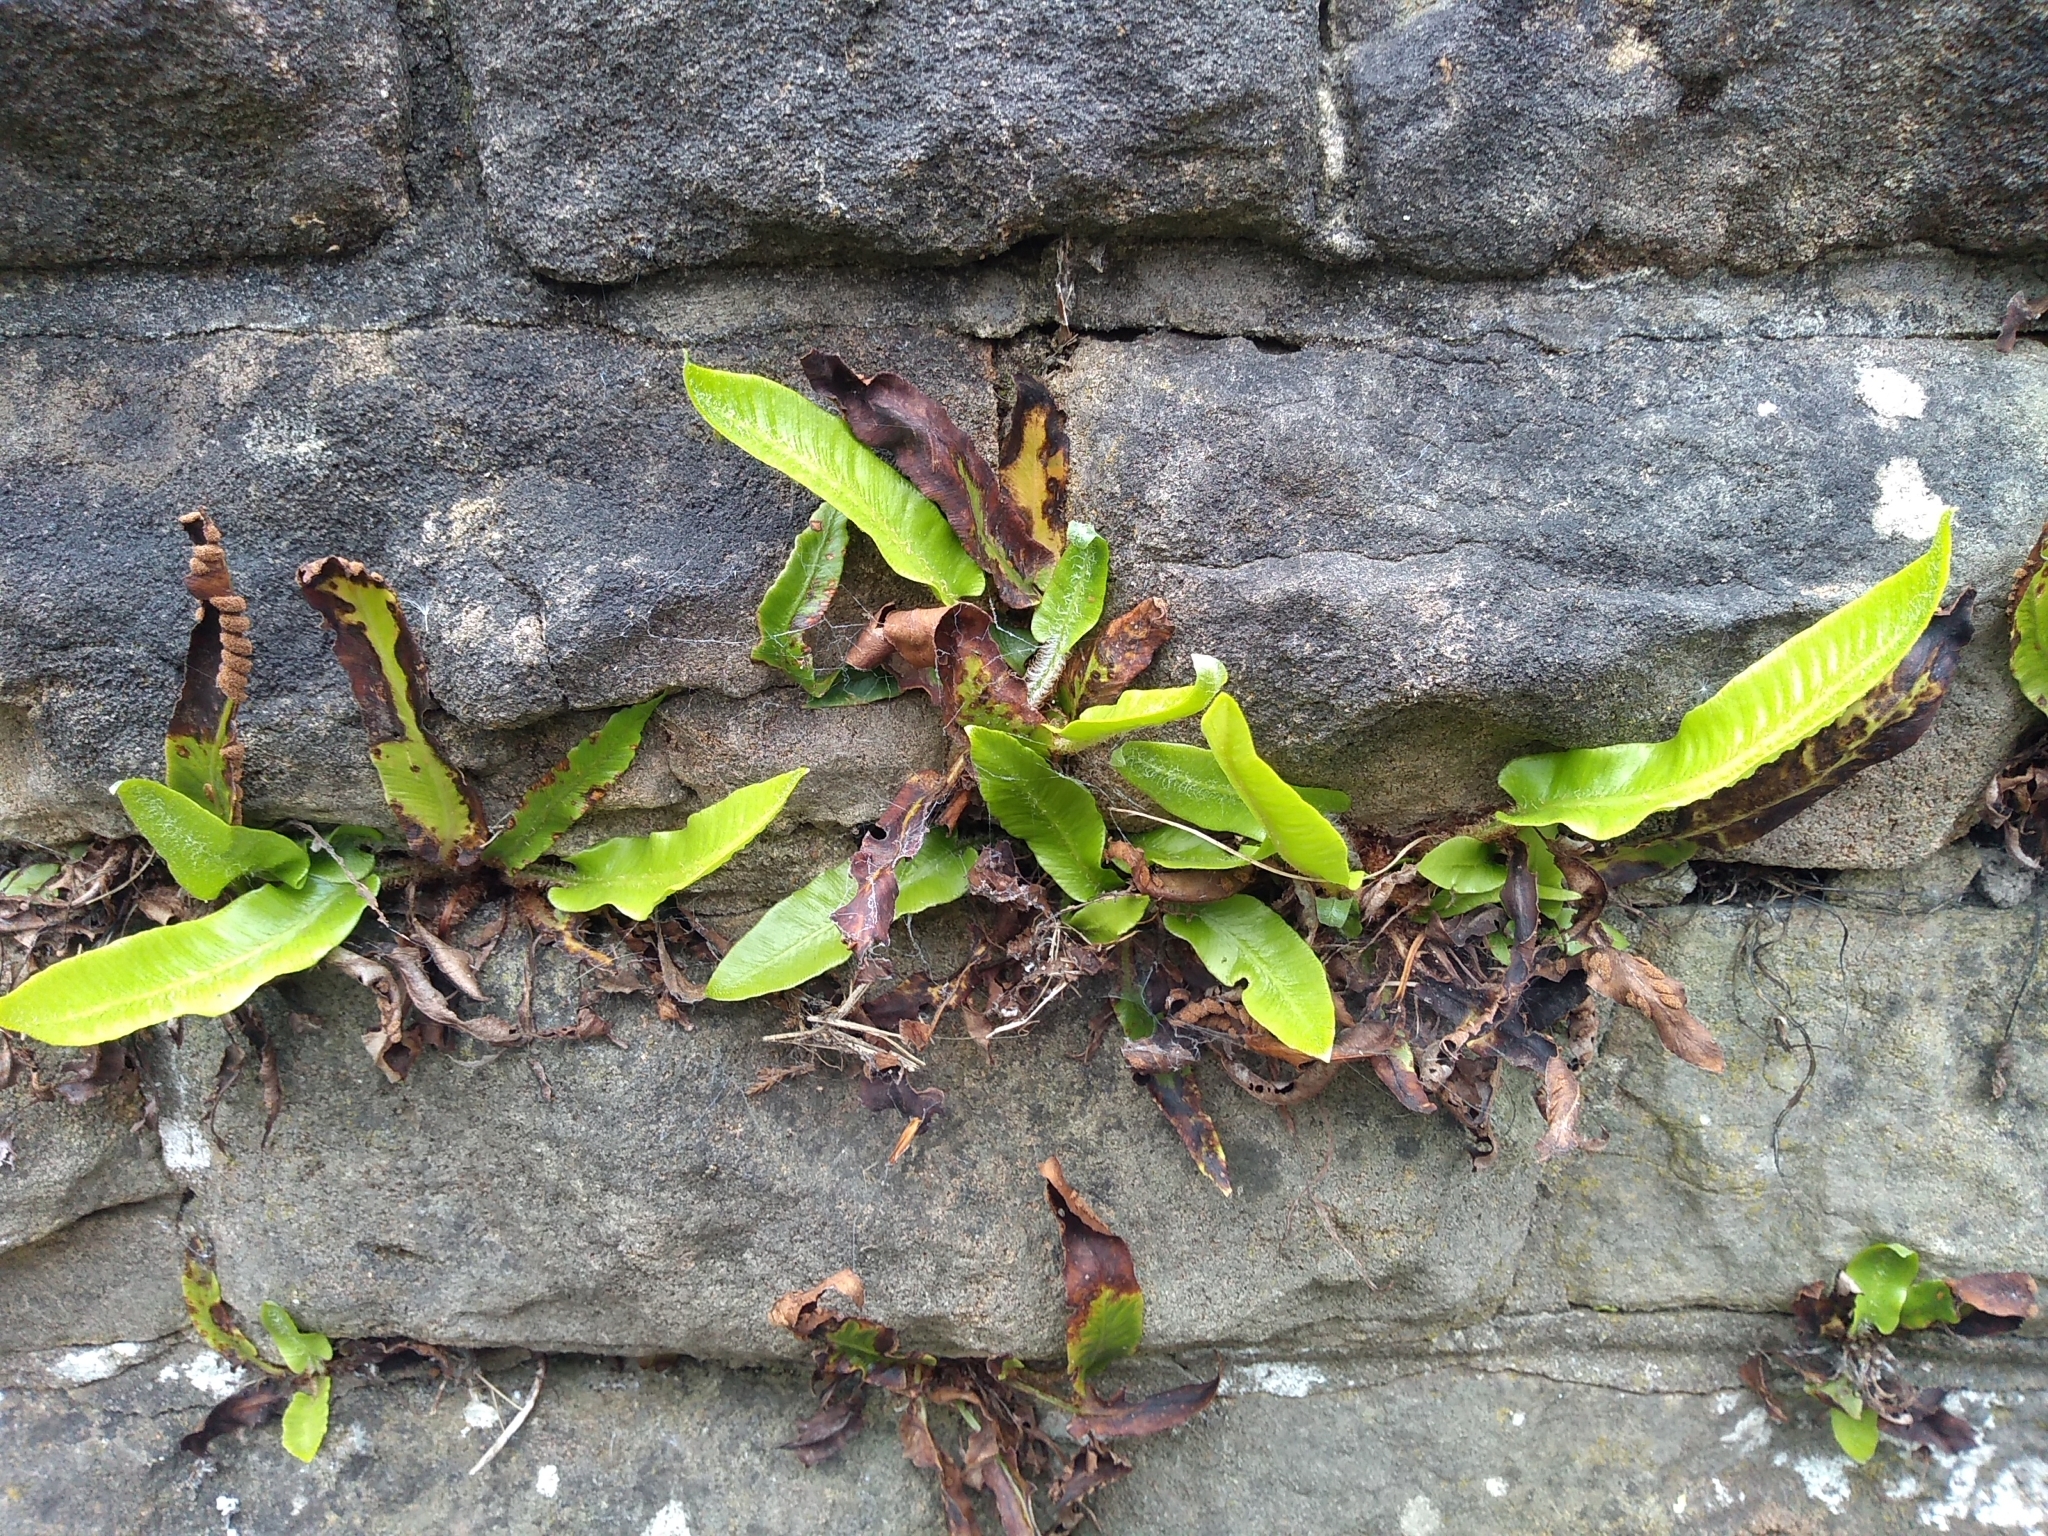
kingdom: Plantae
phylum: Tracheophyta
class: Polypodiopsida
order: Polypodiales
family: Aspleniaceae
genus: Asplenium
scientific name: Asplenium scolopendrium
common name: Hart's-tongue fern
